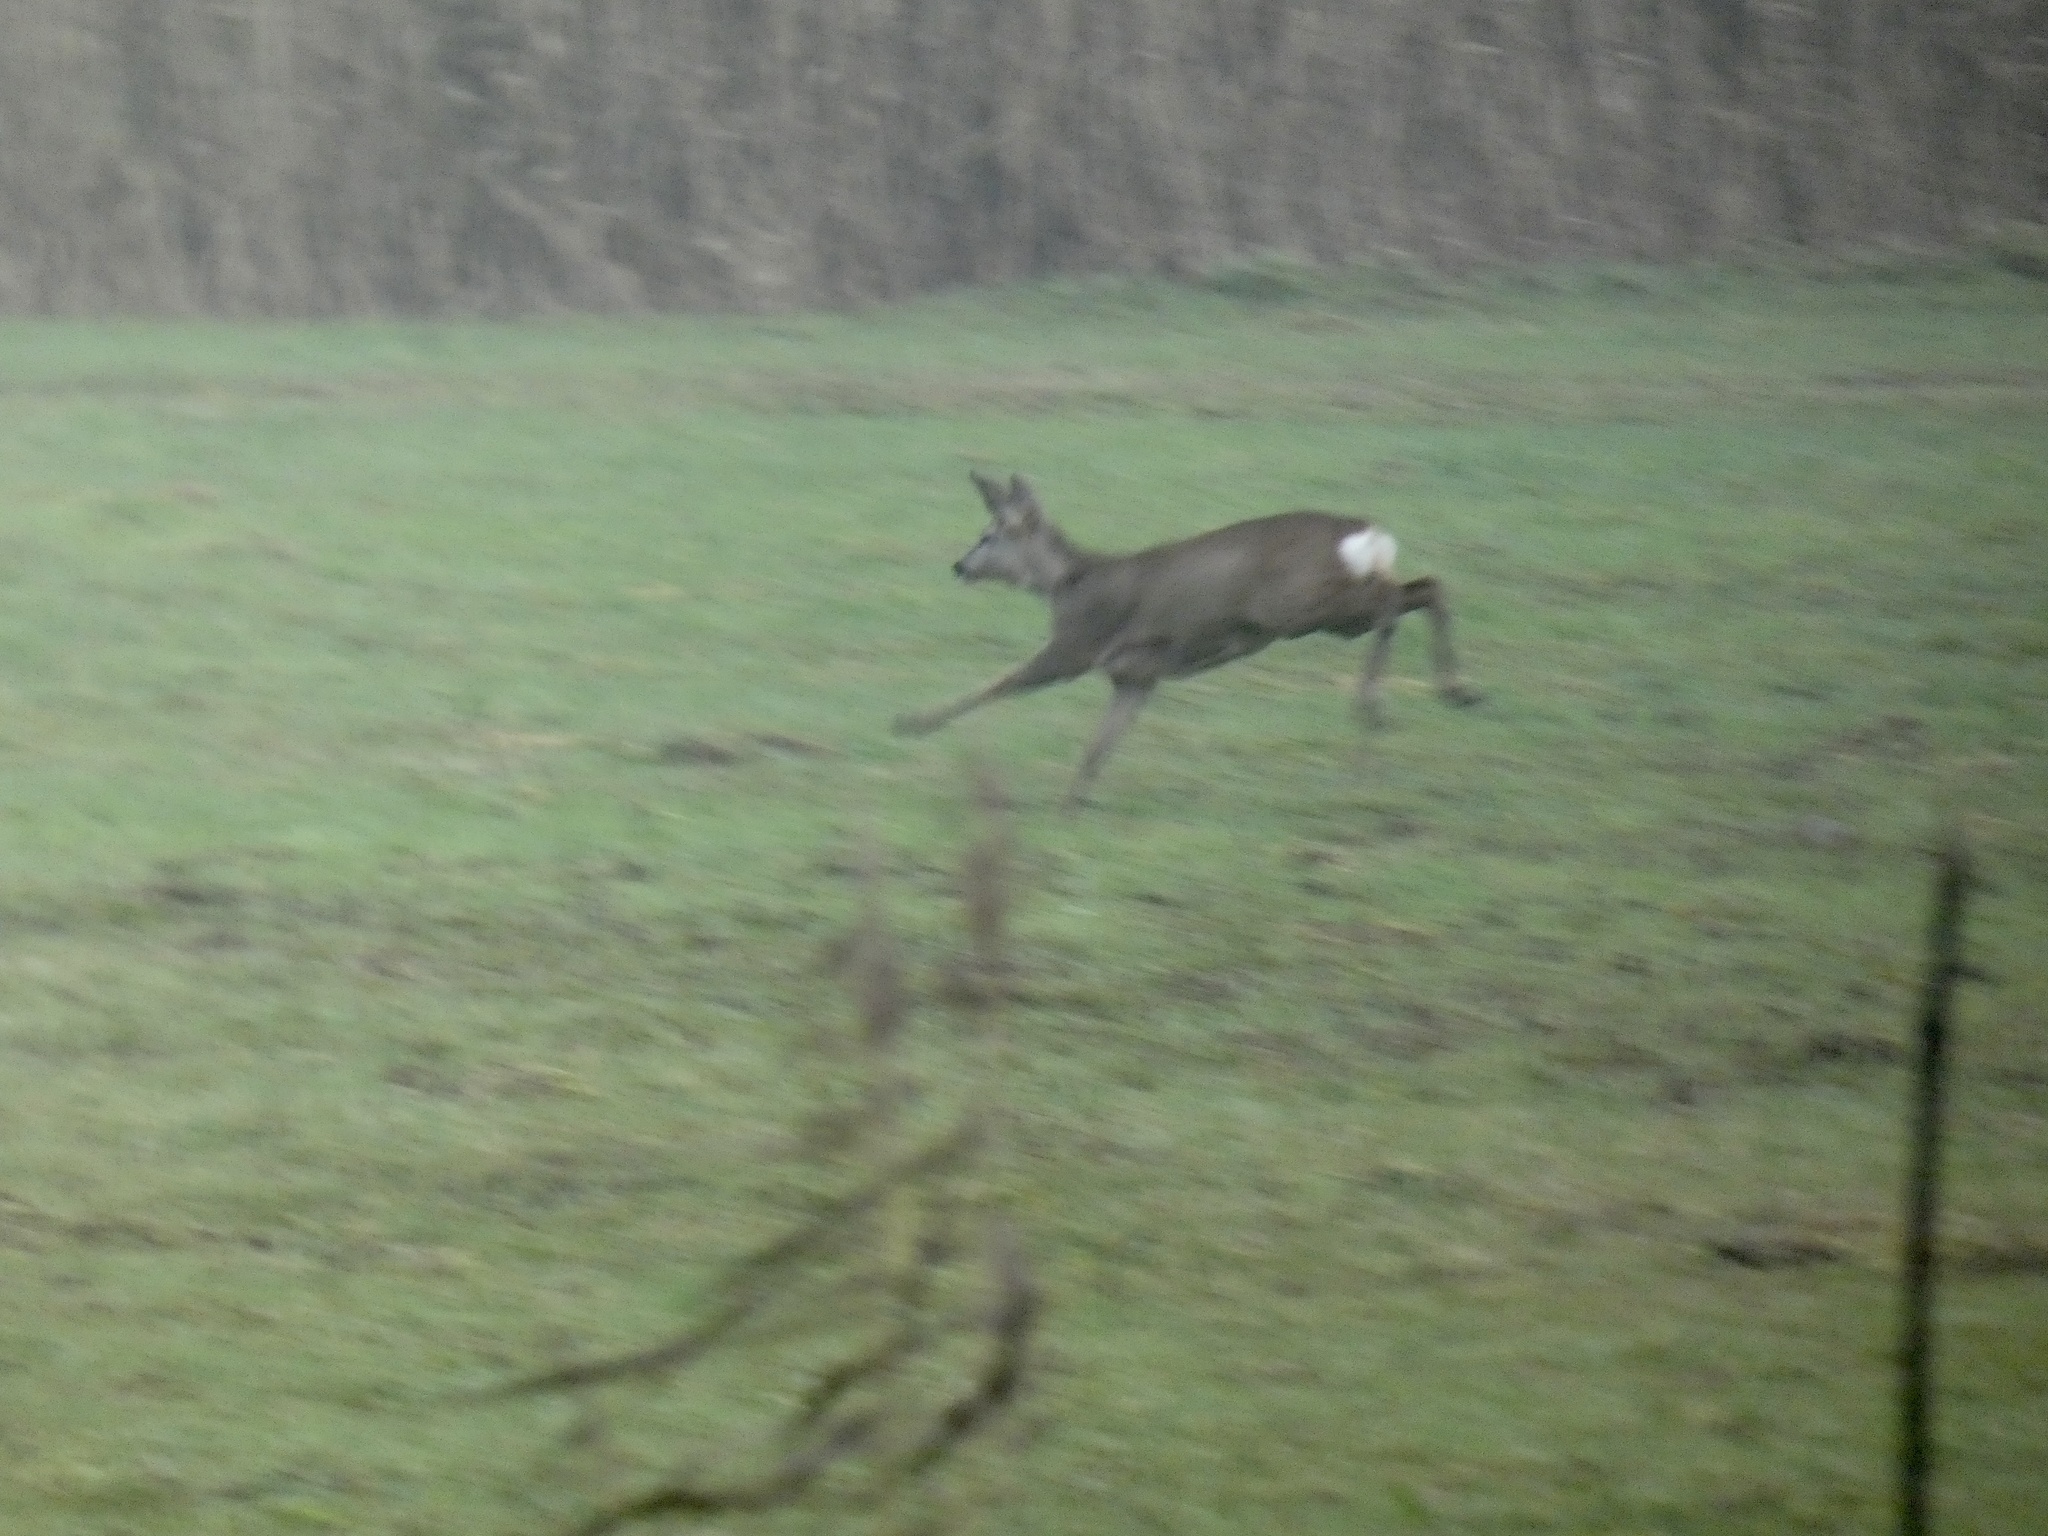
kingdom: Animalia
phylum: Chordata
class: Mammalia
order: Artiodactyla
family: Cervidae
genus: Capreolus
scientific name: Capreolus capreolus
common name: Western roe deer
